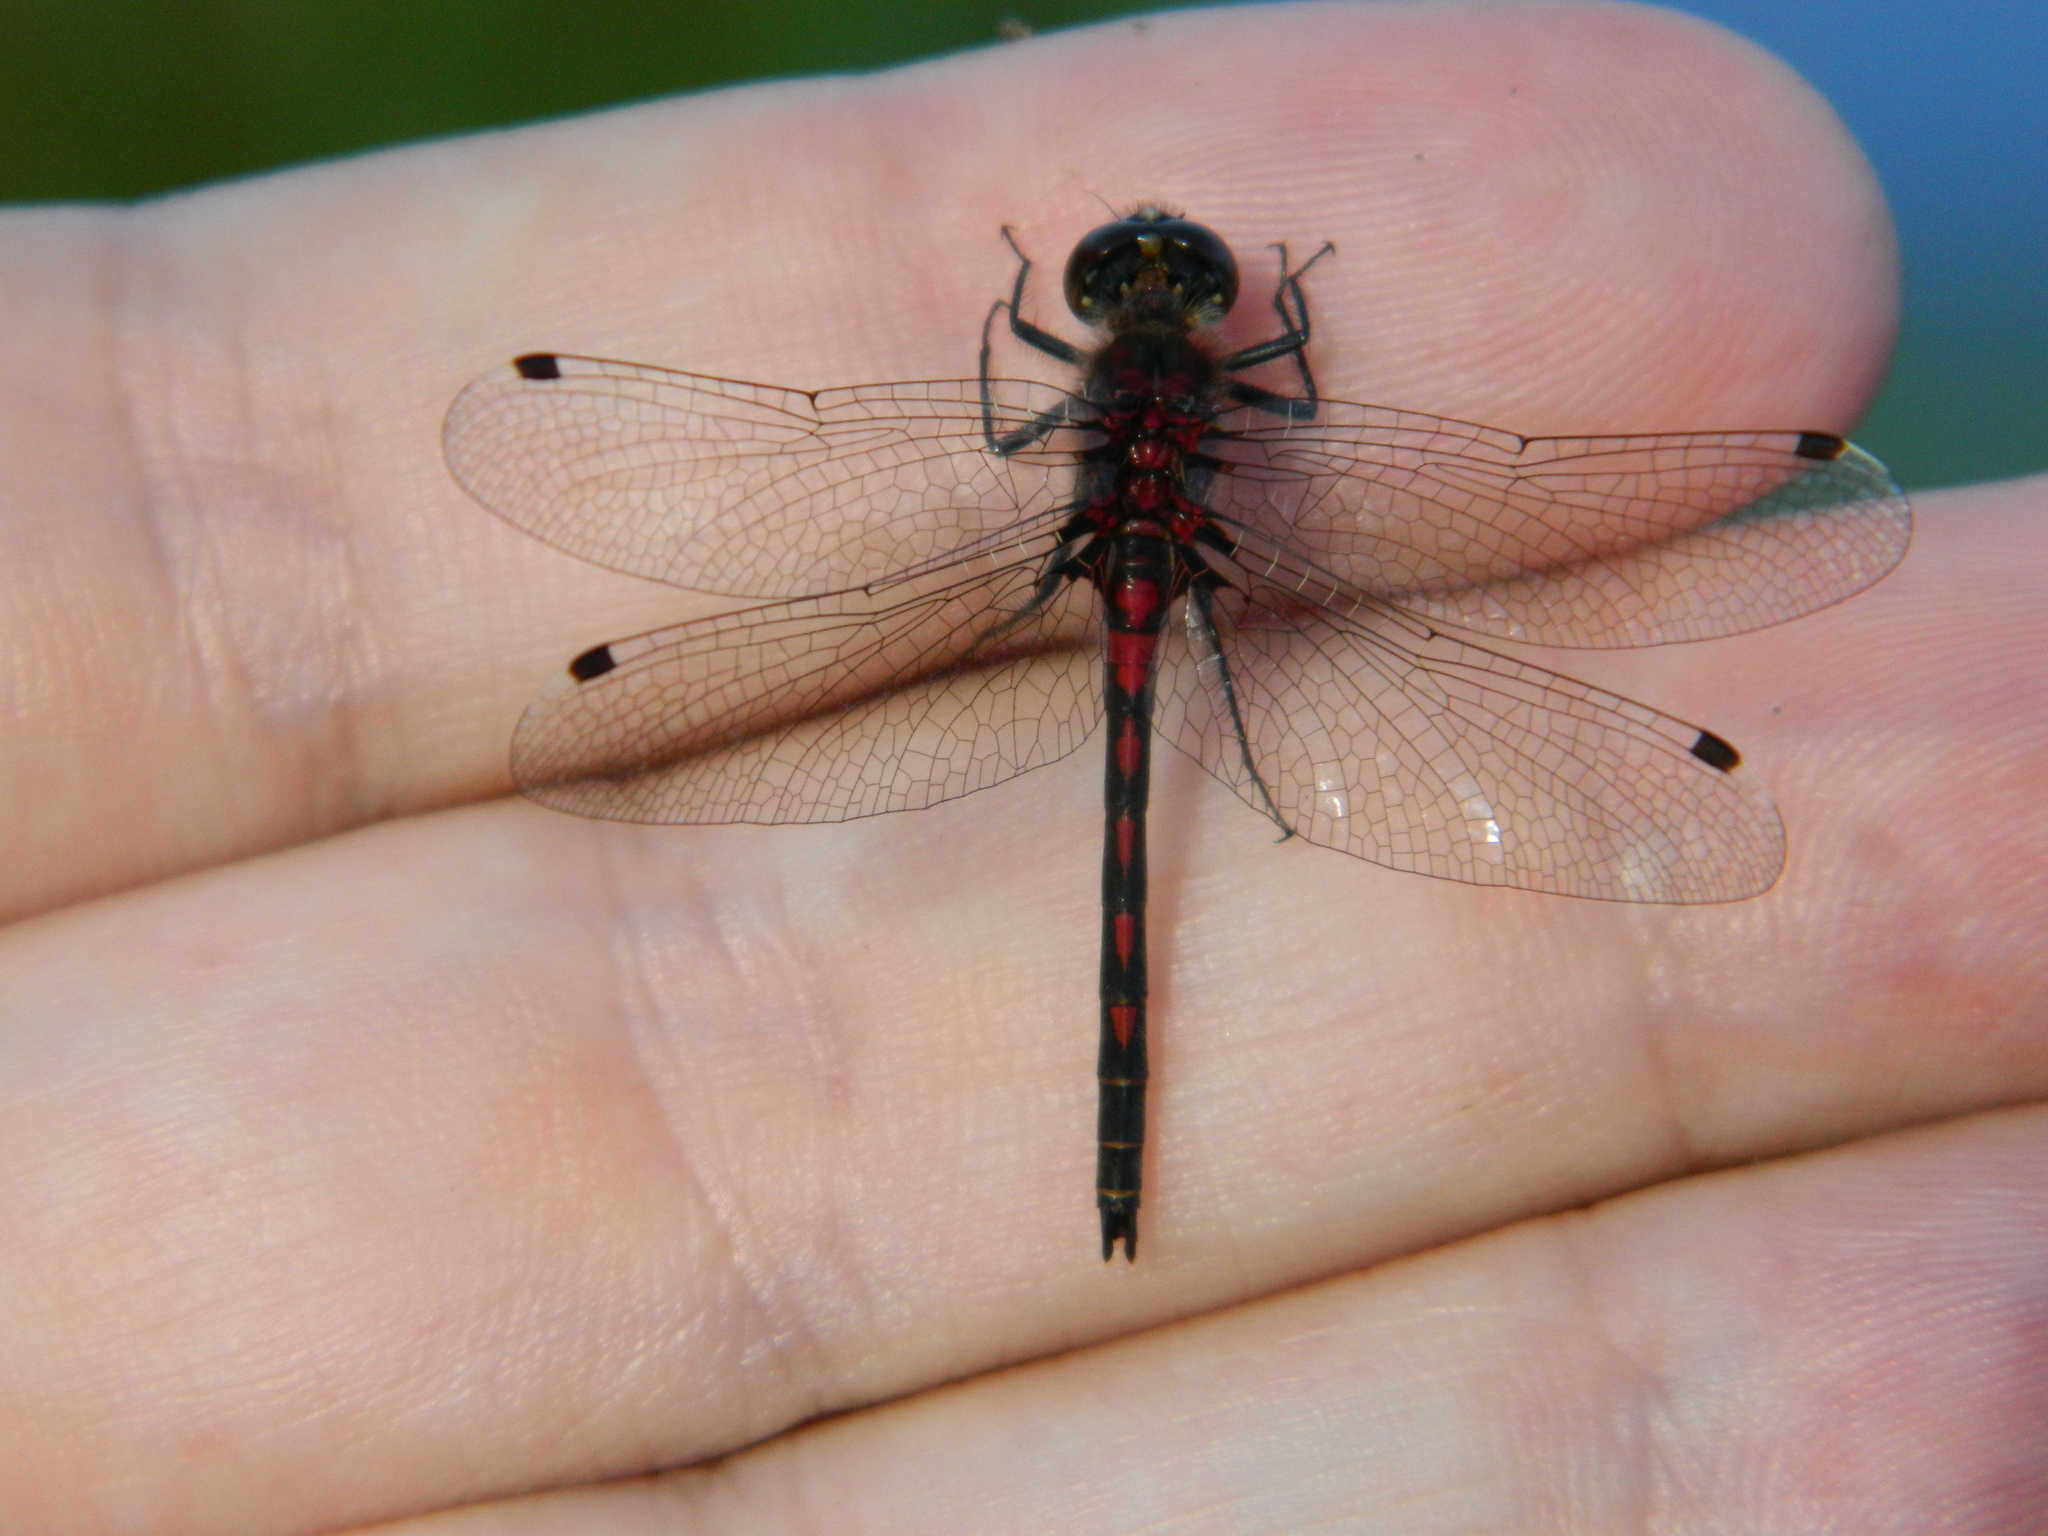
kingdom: Animalia
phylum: Arthropoda
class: Insecta
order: Odonata
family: Libellulidae
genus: Leucorrhinia
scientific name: Leucorrhinia hudsonica
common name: Hudsonian whiteface
